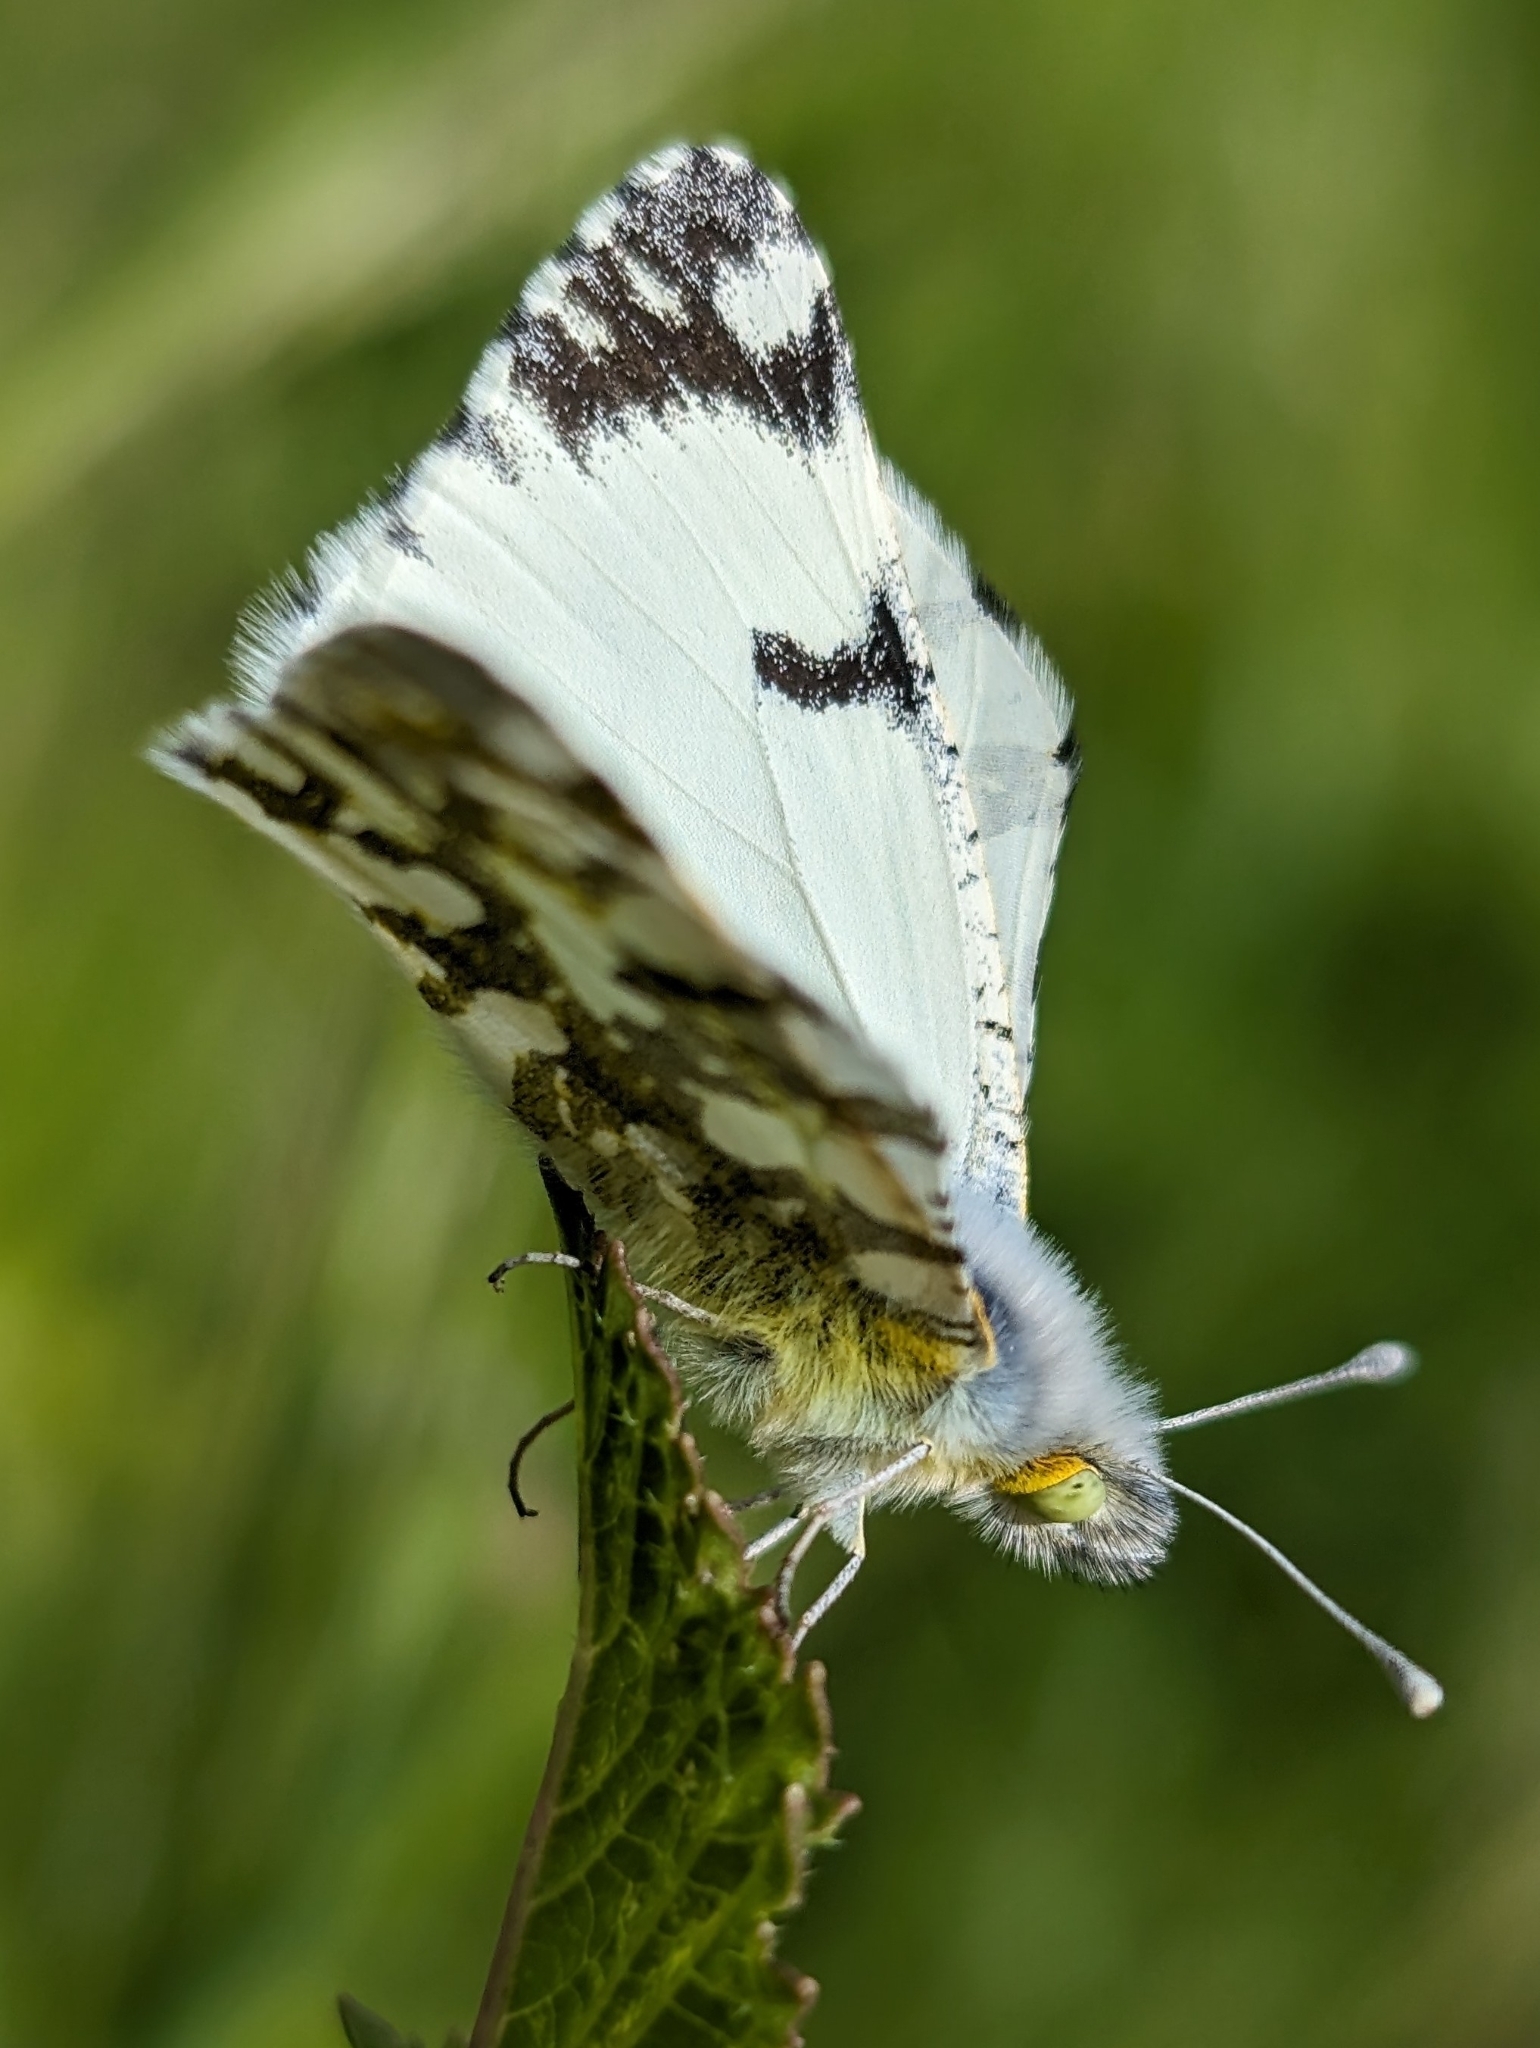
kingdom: Animalia
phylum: Arthropoda
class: Insecta
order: Lepidoptera
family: Pieridae
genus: Euchloe
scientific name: Euchloe ausonides
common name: Creamy marblewing
